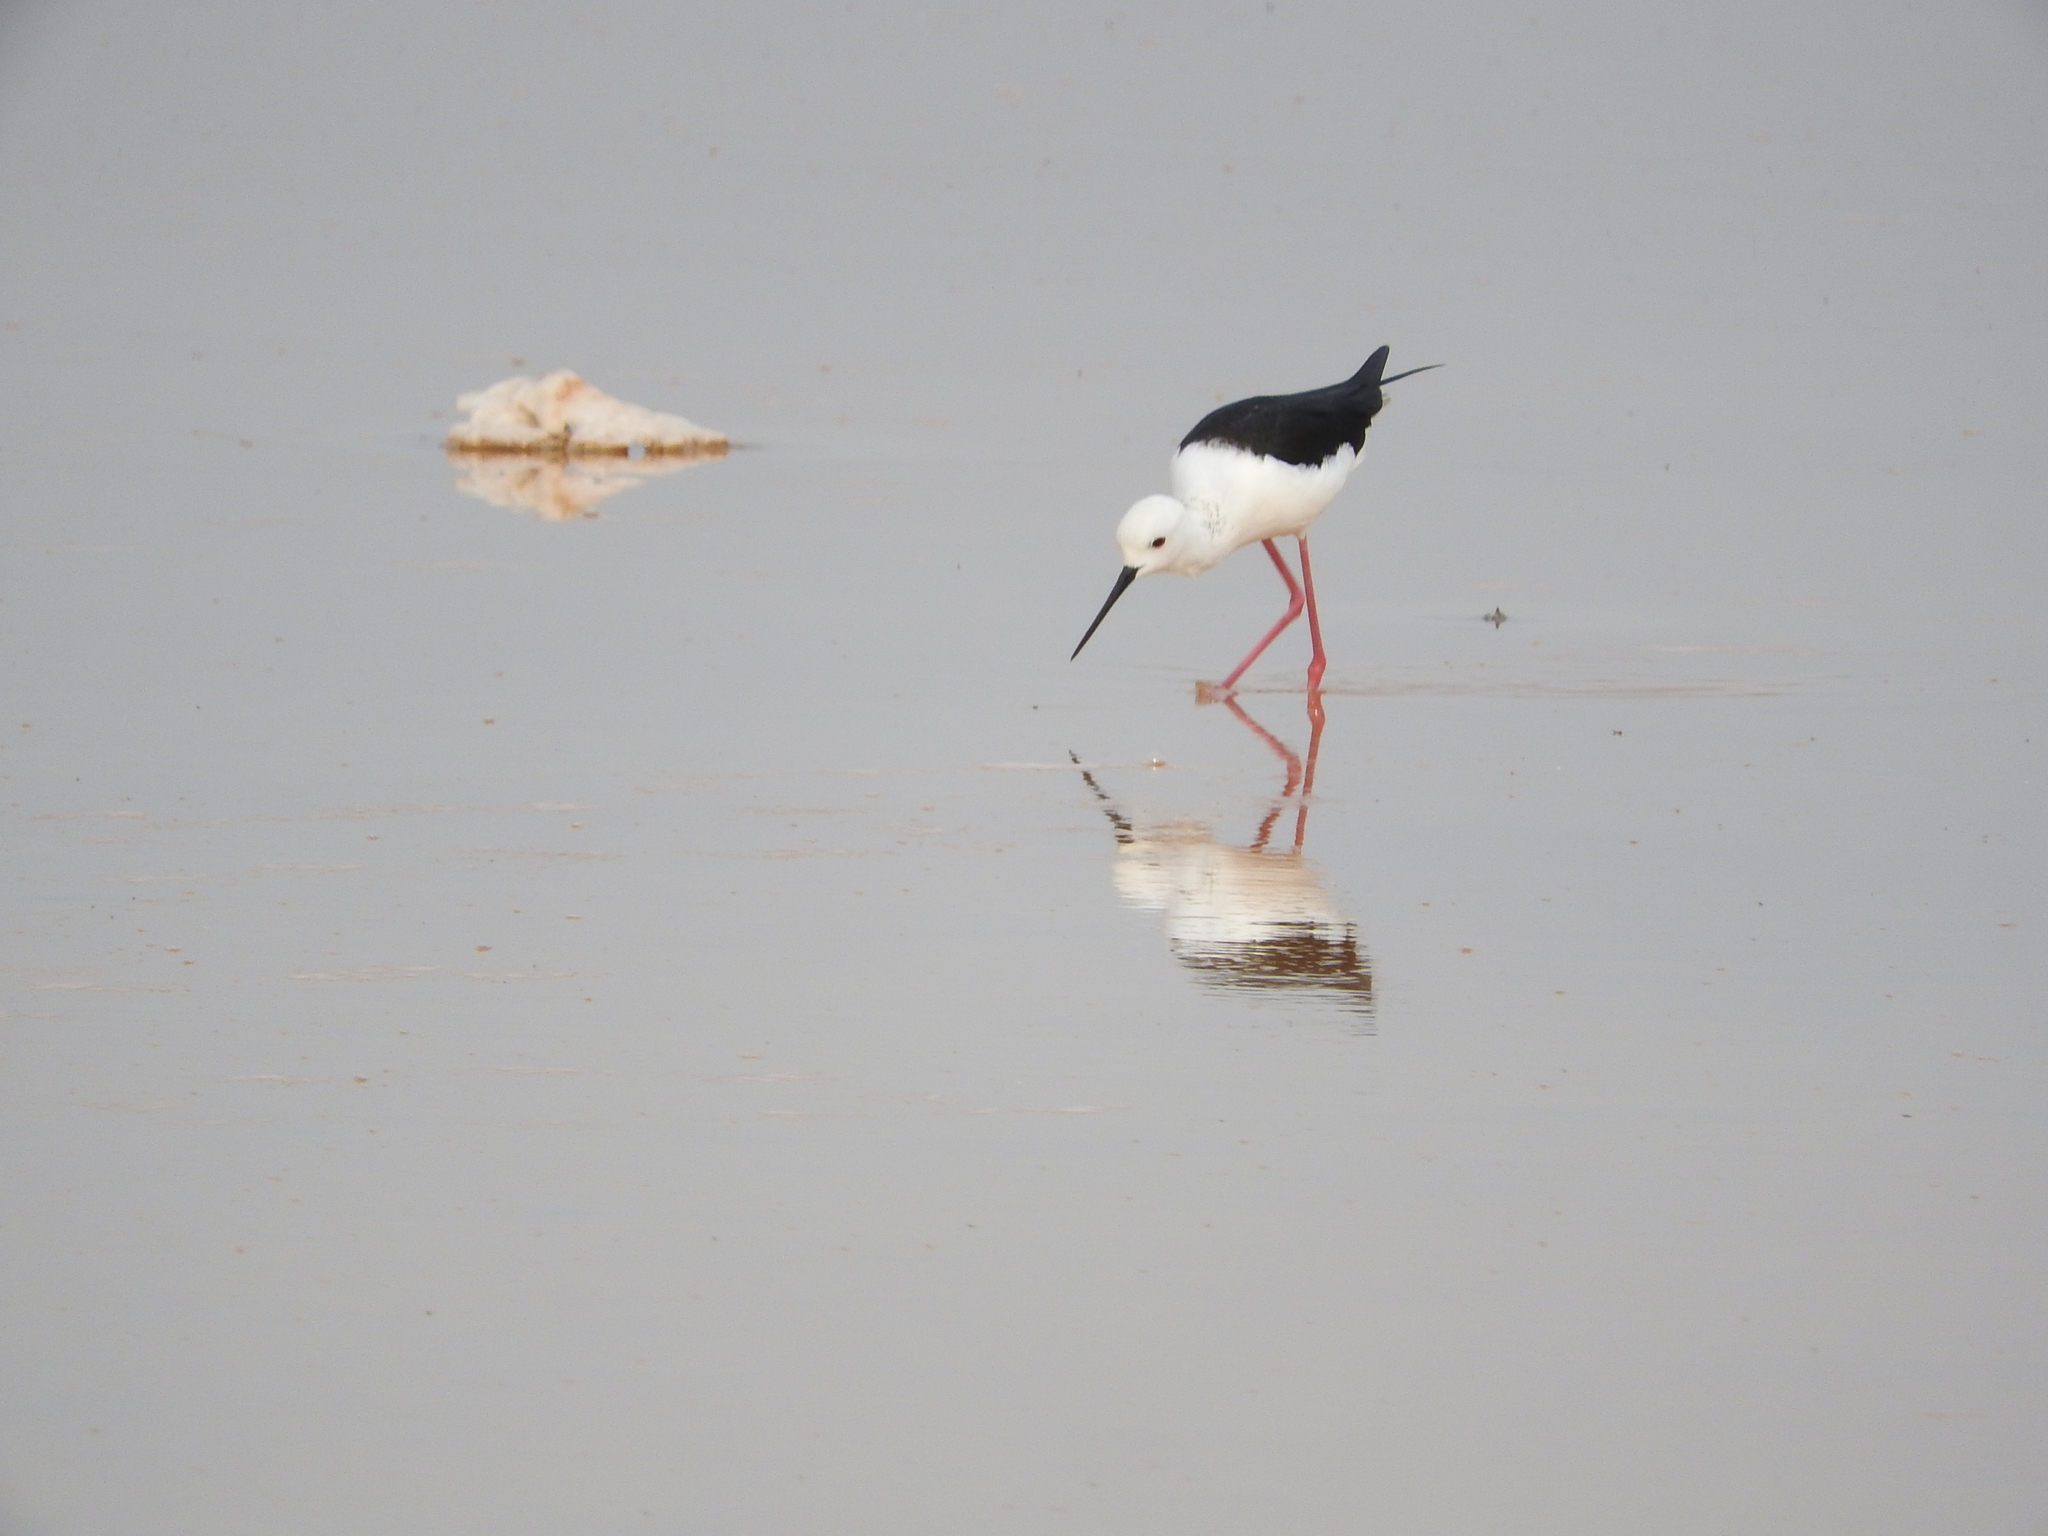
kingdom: Animalia
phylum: Chordata
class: Aves
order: Charadriiformes
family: Recurvirostridae
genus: Himantopus
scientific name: Himantopus himantopus
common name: Black-winged stilt
